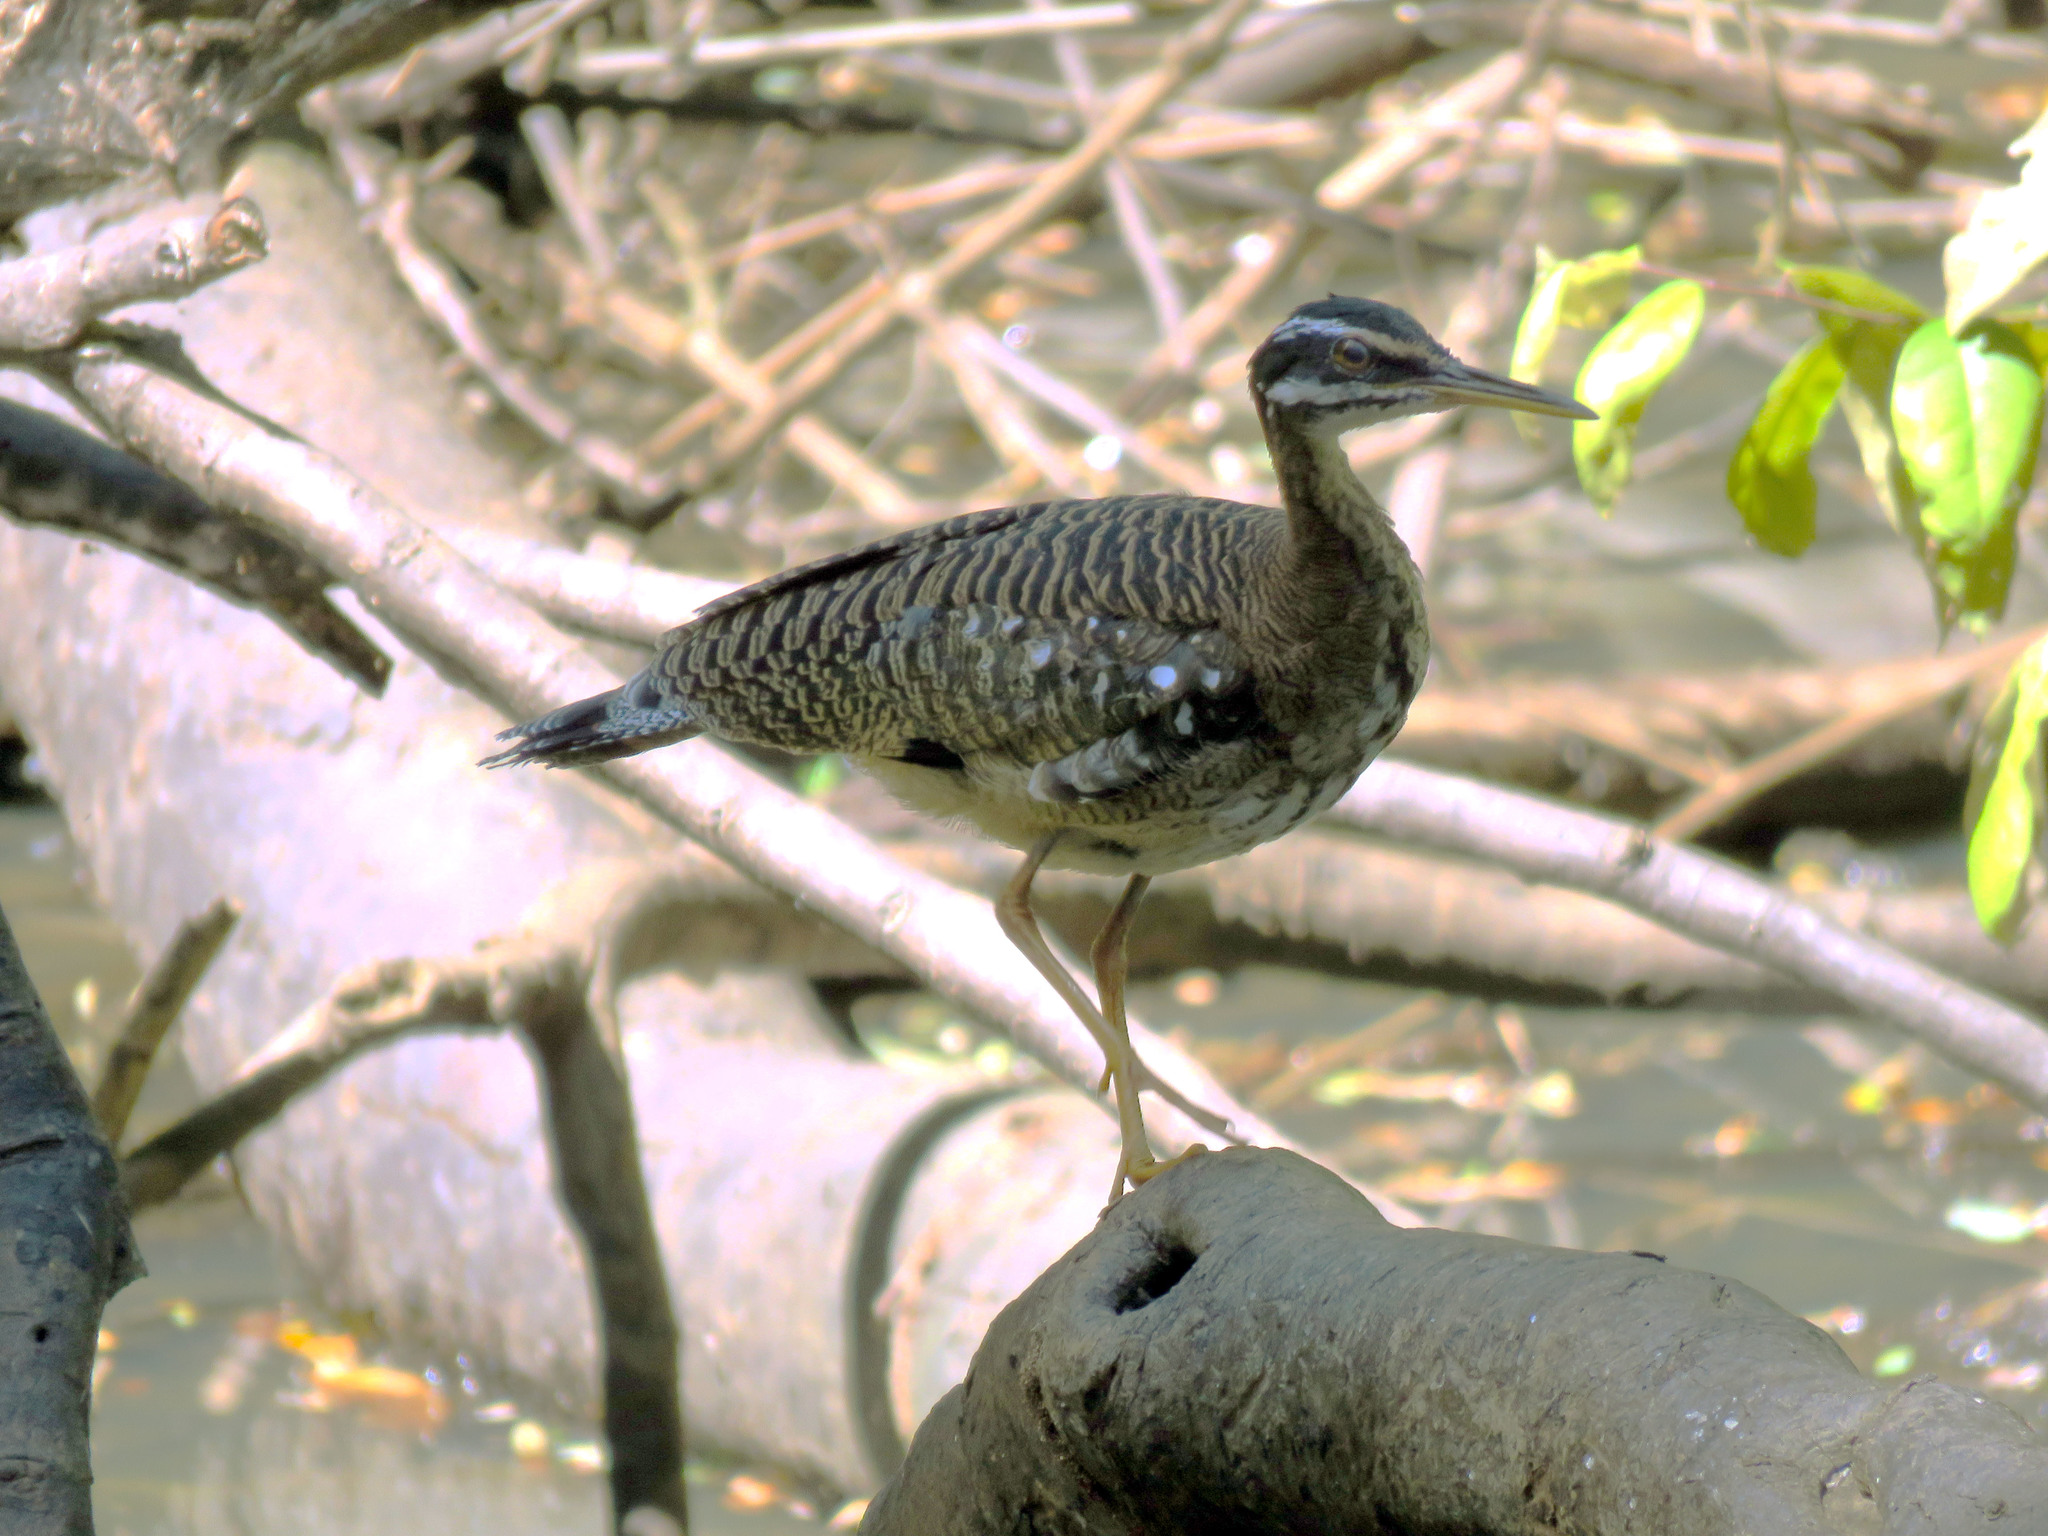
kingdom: Animalia
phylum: Chordata
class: Aves
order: Eurypygiformes
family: Eurypygidae
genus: Eurypyga
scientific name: Eurypyga helias
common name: Sunbittern
